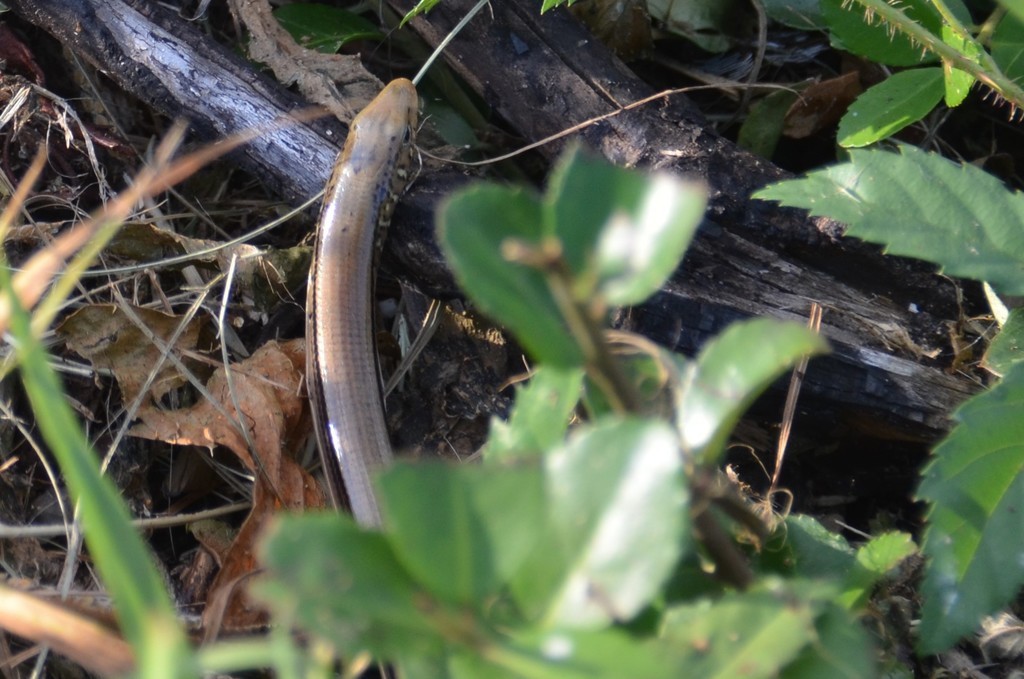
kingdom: Animalia
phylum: Chordata
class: Squamata
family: Anguidae
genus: Ophisaurus
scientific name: Ophisaurus ventralis
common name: Eastern glass lizard
